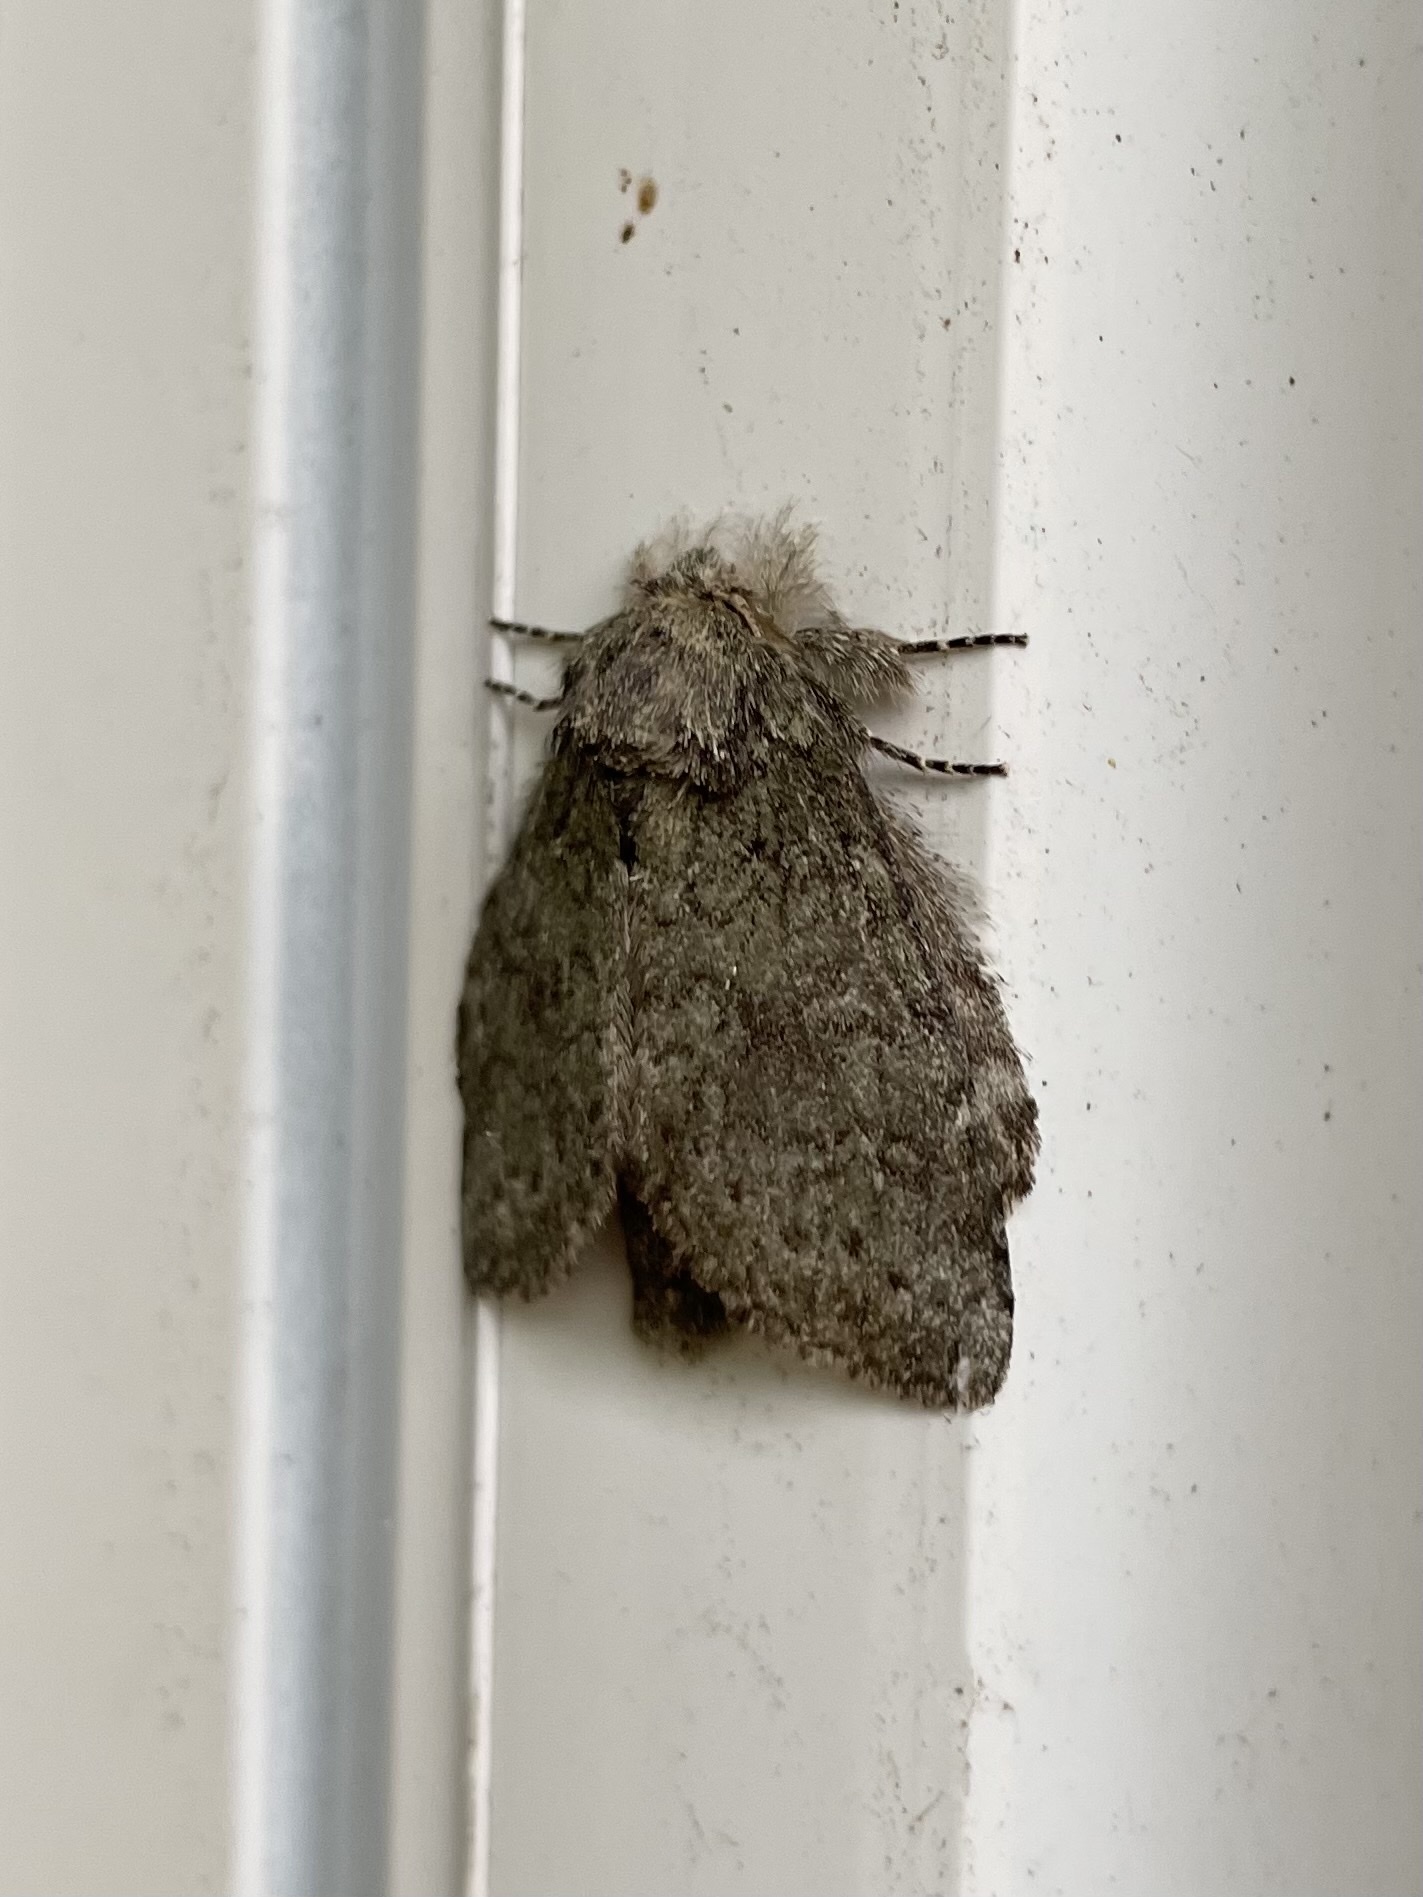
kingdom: Animalia
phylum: Arthropoda
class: Insecta
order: Lepidoptera
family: Notodontidae
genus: Disphragis
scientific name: Disphragis Cecrita guttivitta
